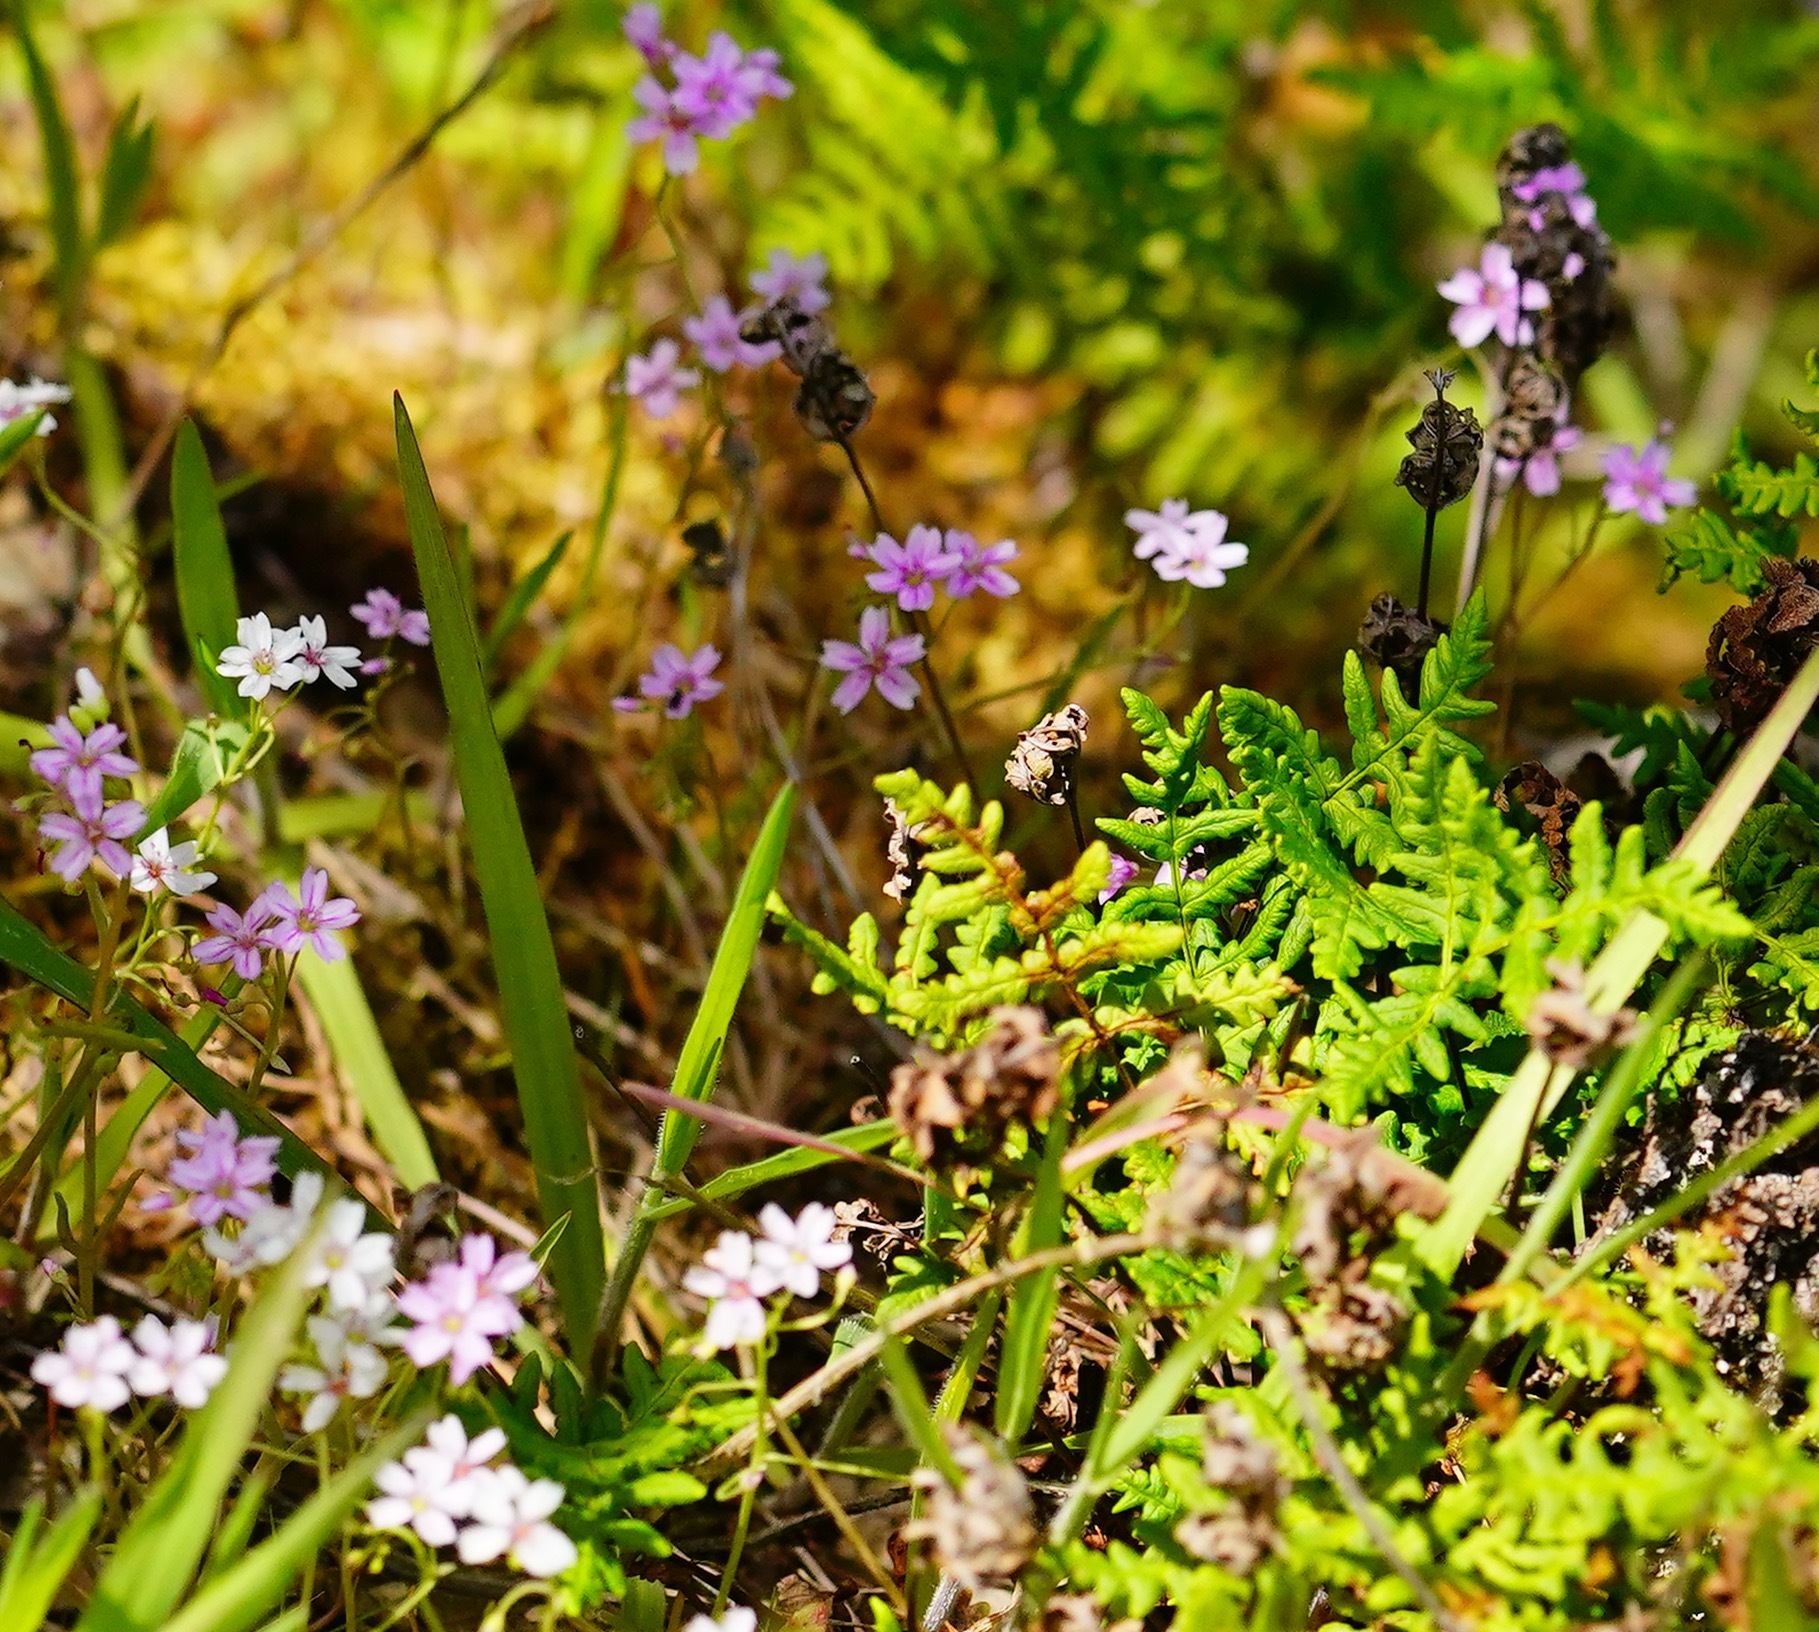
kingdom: Plantae
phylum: Tracheophyta
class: Magnoliopsida
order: Caryophyllales
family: Montiaceae
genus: Claytonia
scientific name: Claytonia gypsophiloides
